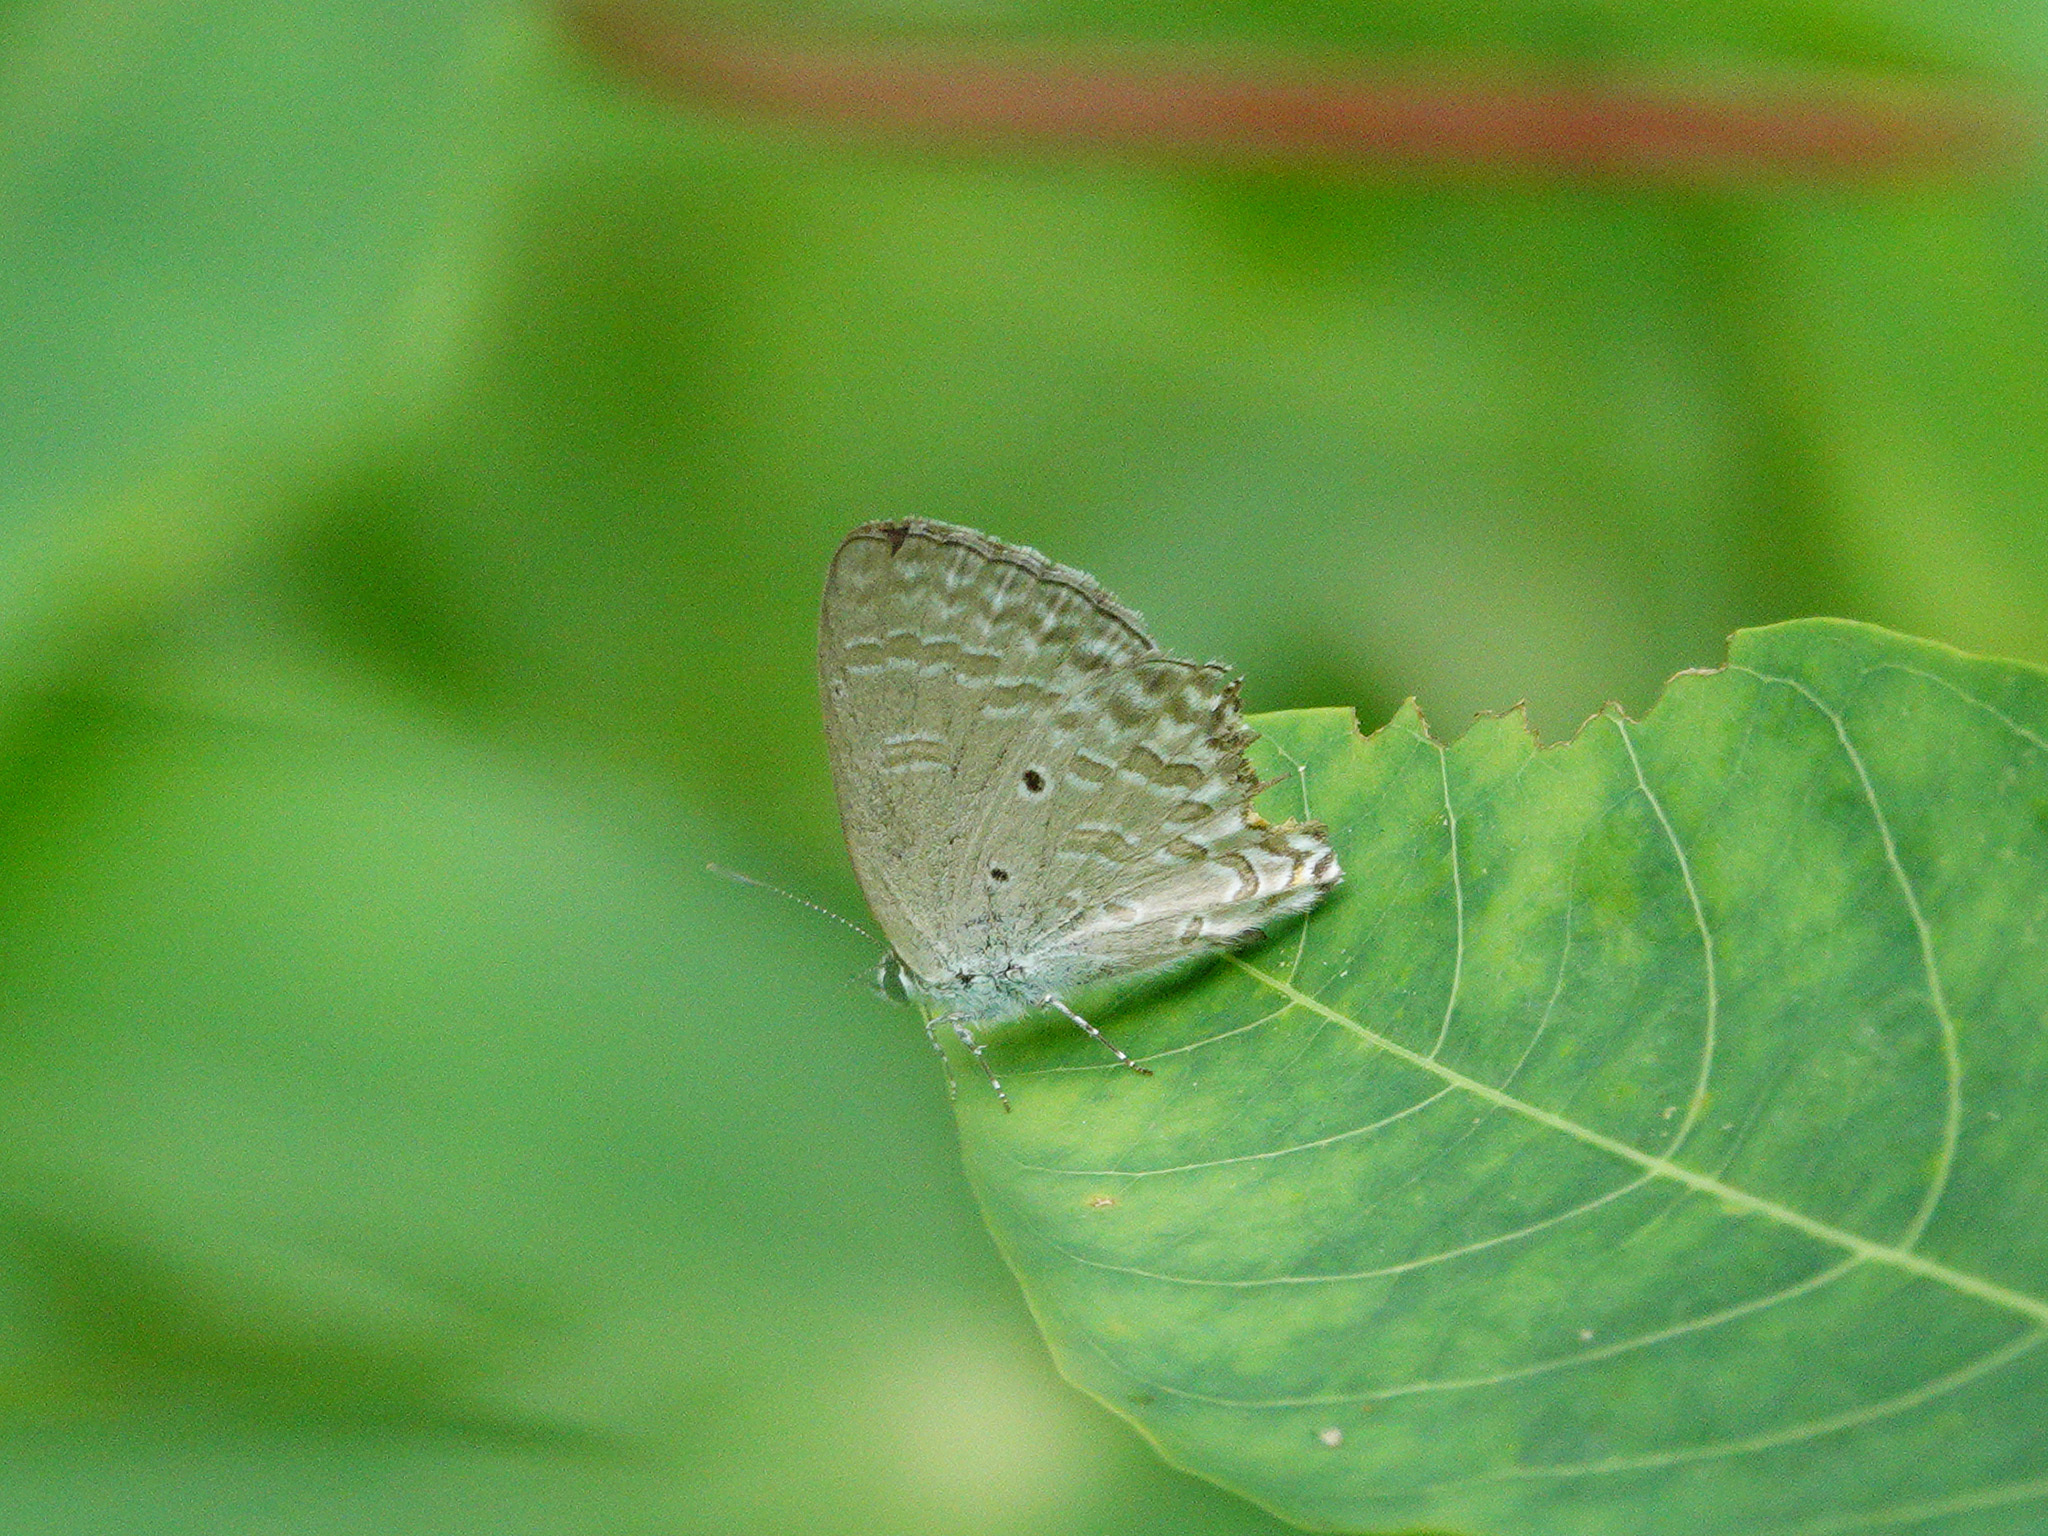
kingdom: Animalia
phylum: Arthropoda
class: Insecta
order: Lepidoptera
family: Lycaenidae
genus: Catochrysops
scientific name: Catochrysops panormus
